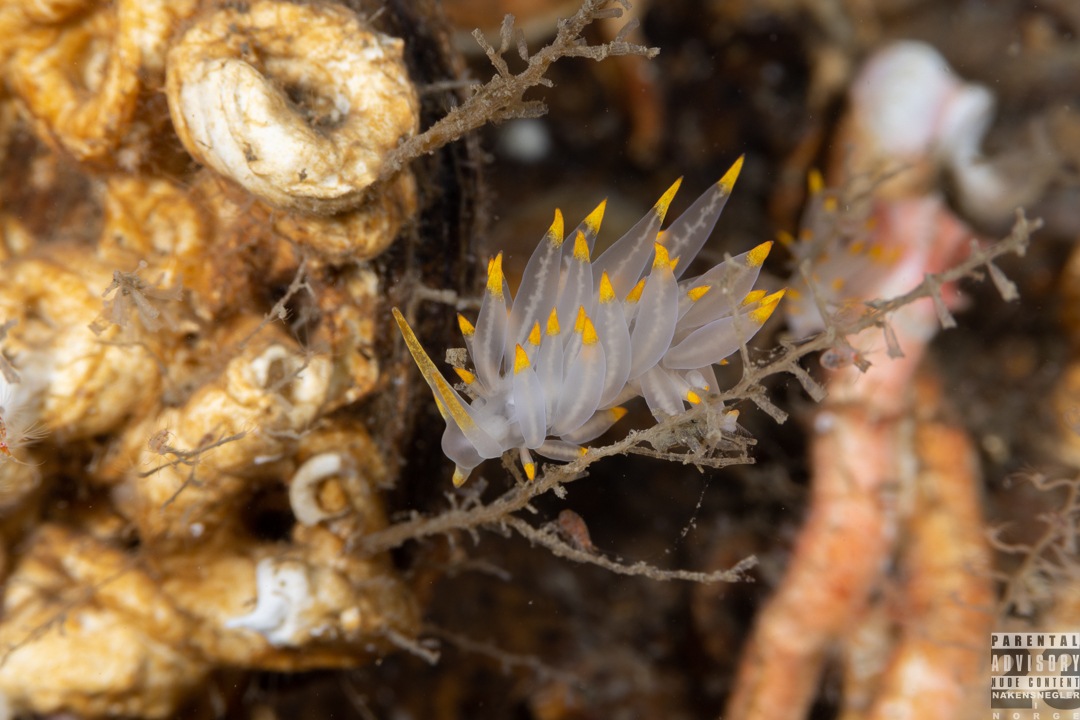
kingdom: Animalia
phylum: Mollusca
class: Gastropoda
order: Nudibranchia
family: Eubranchidae
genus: Amphorina
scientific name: Amphorina farrani
